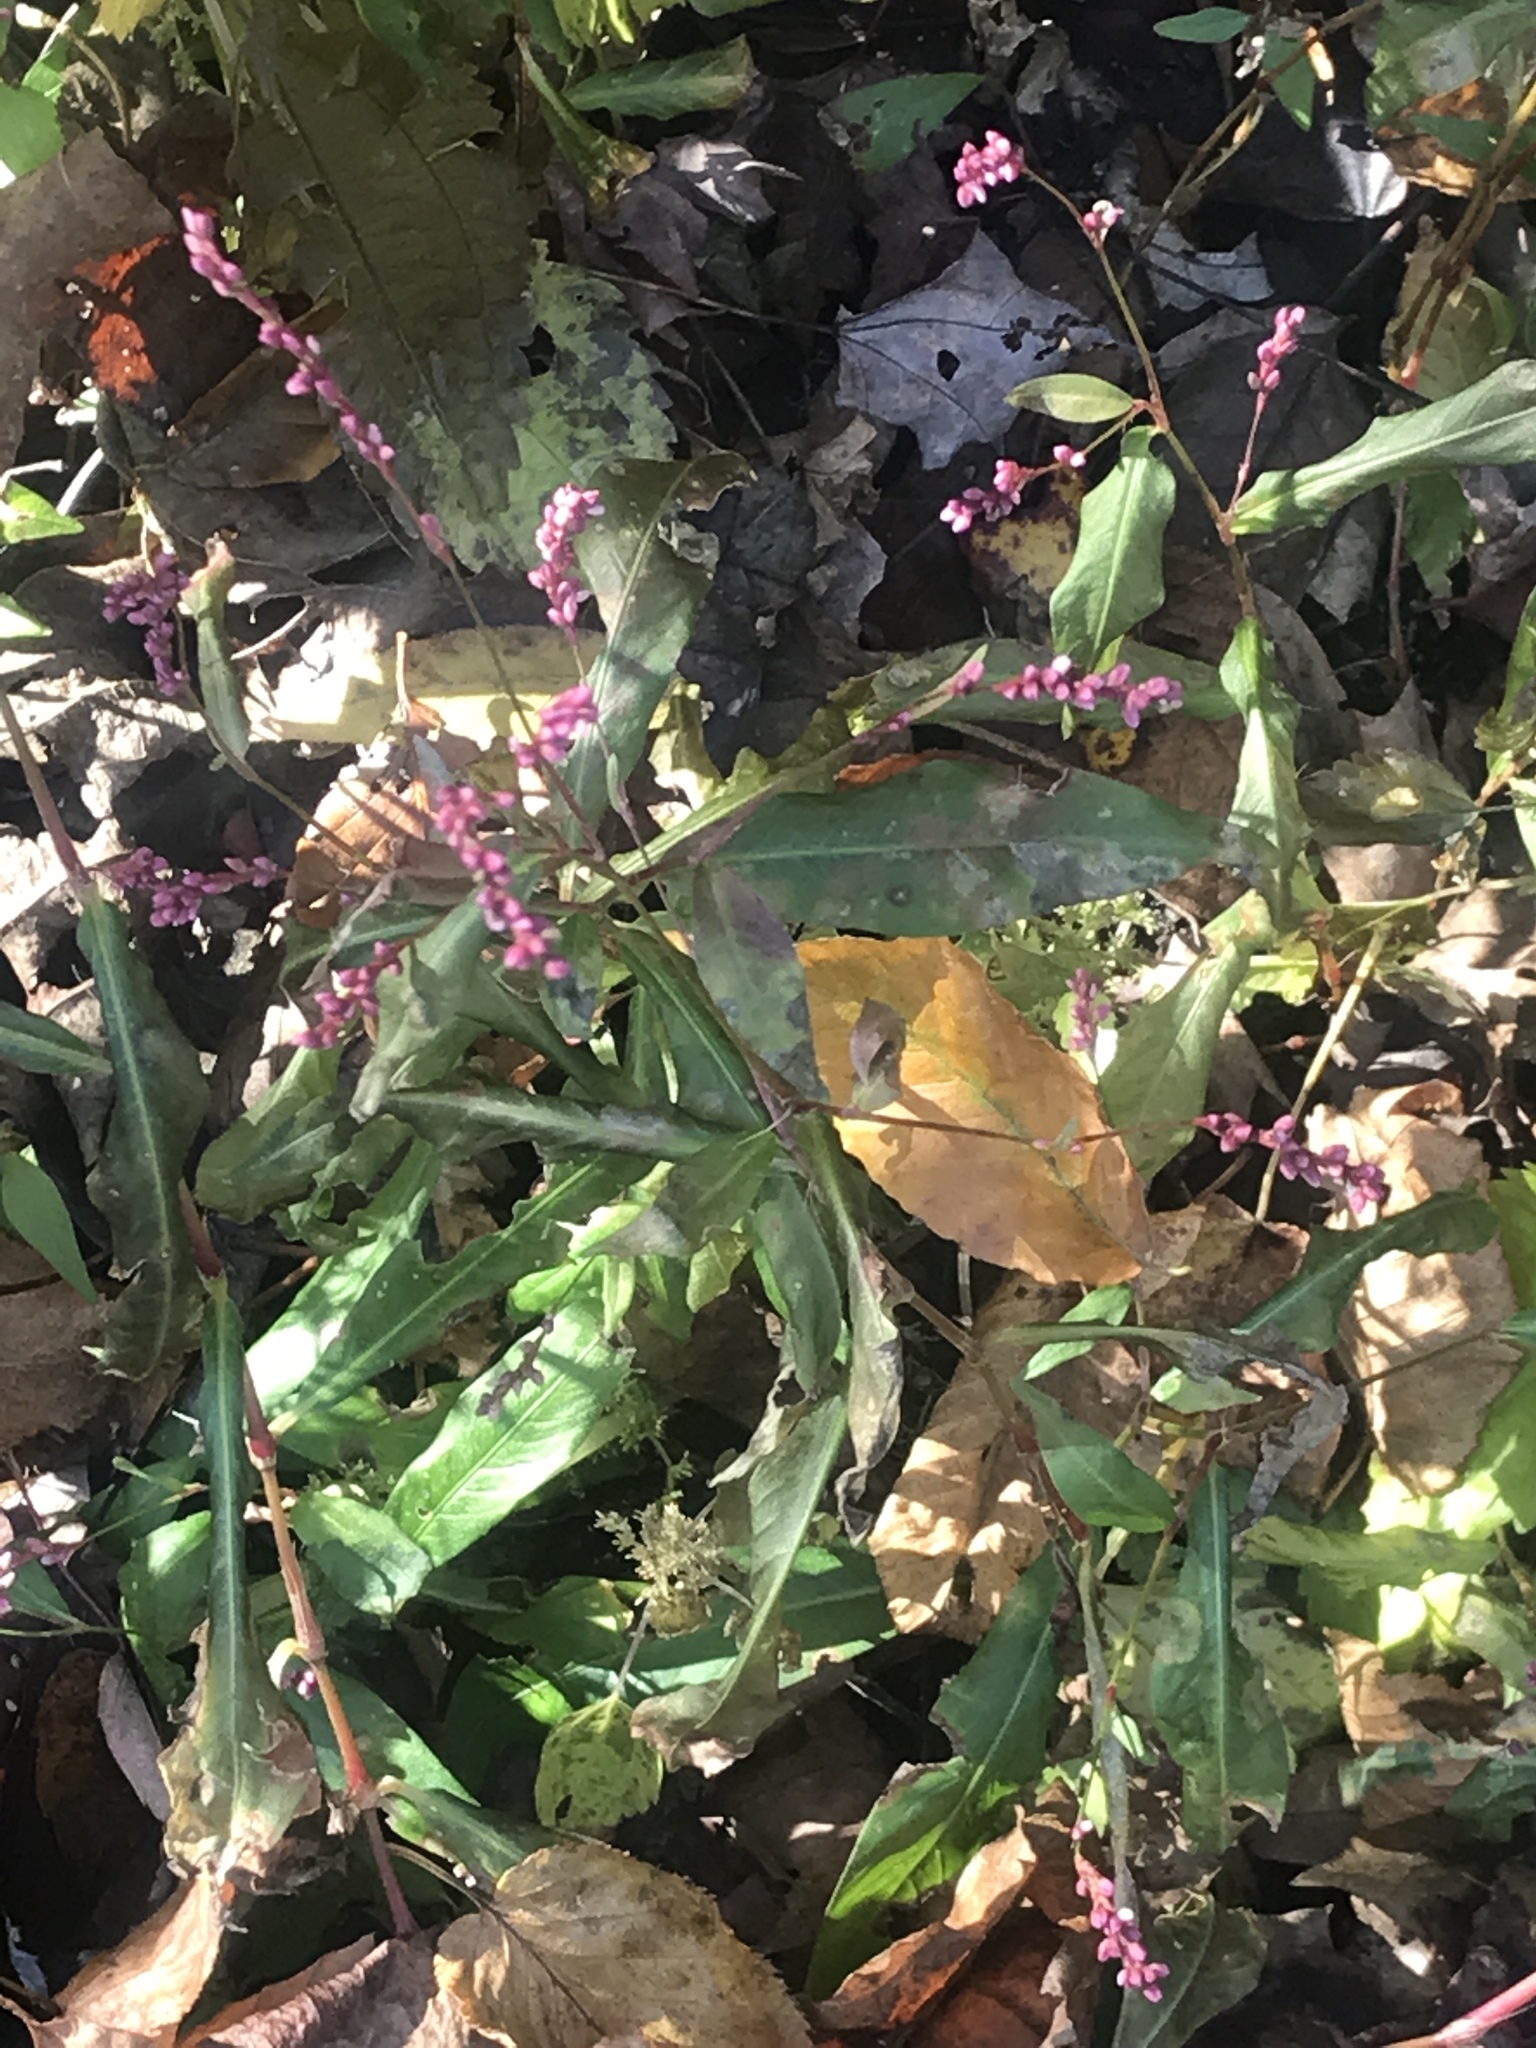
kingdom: Plantae
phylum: Tracheophyta
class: Magnoliopsida
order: Caryophyllales
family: Polygonaceae
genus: Persicaria
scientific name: Persicaria longiseta
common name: Bristly lady's-thumb
